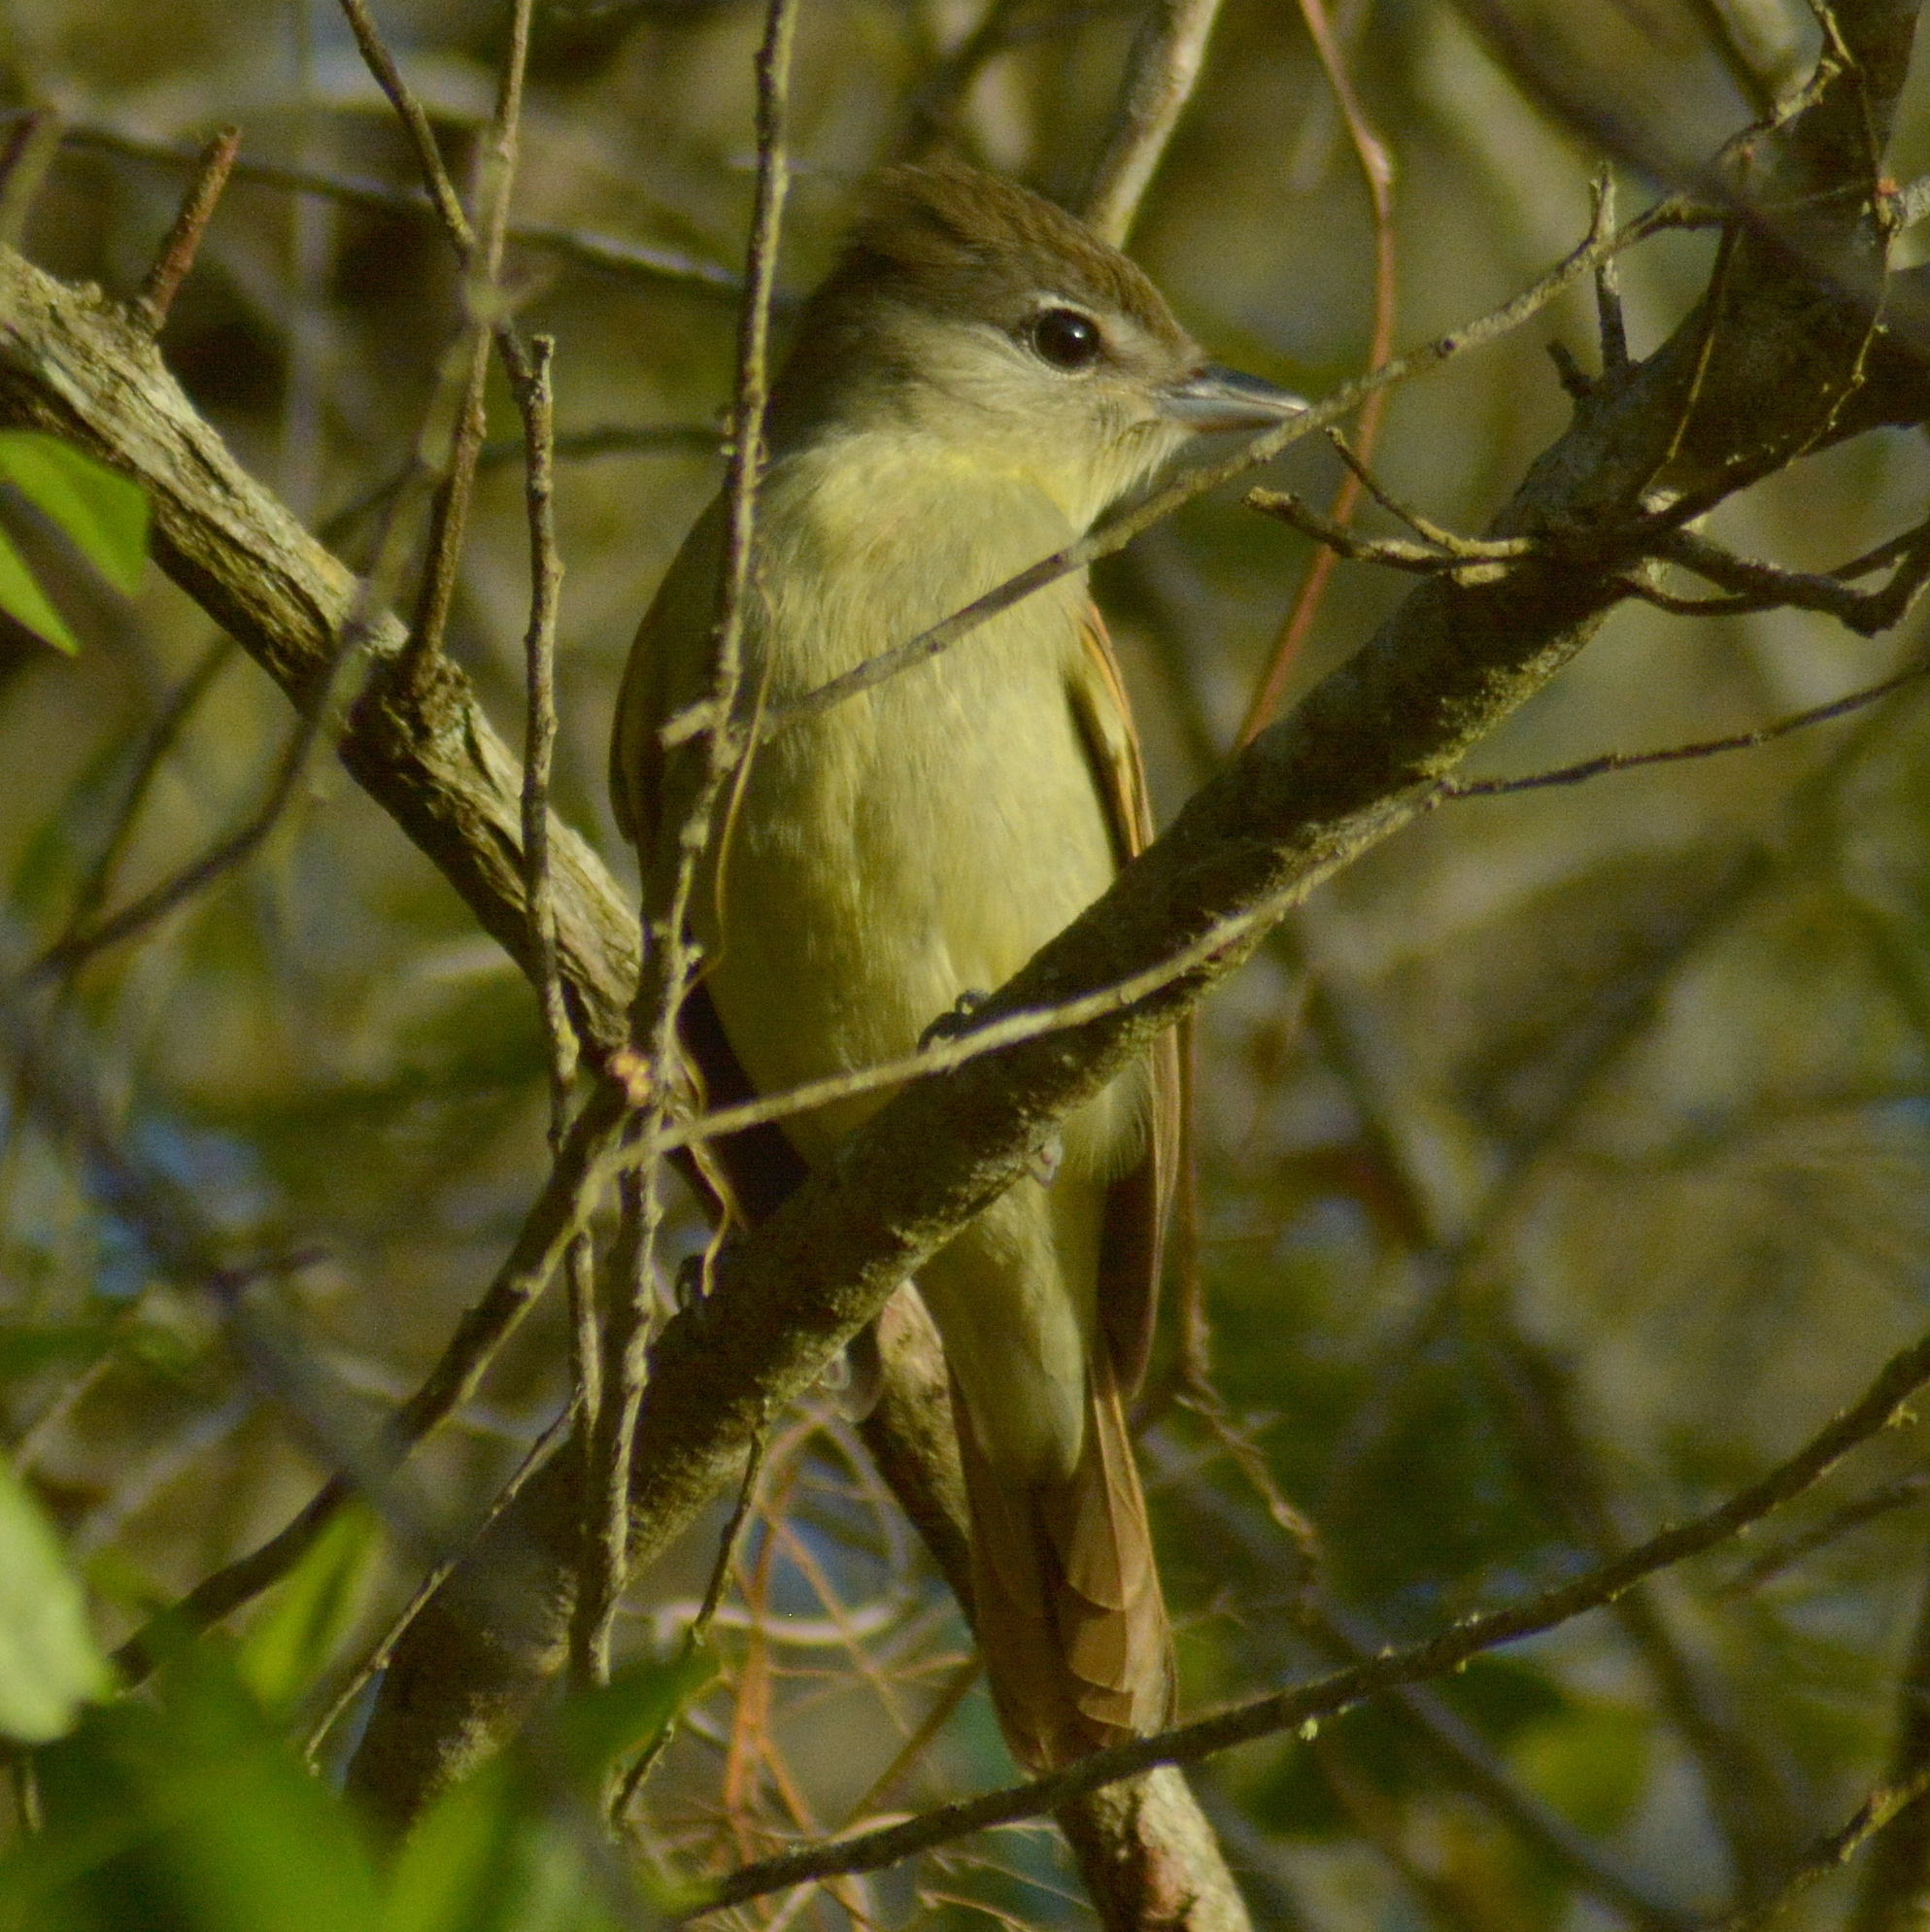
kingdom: Animalia
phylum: Chordata
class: Aves
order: Passeriformes
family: Cotingidae
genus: Pachyramphus
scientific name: Pachyramphus polychopterus
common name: White-winged becard
